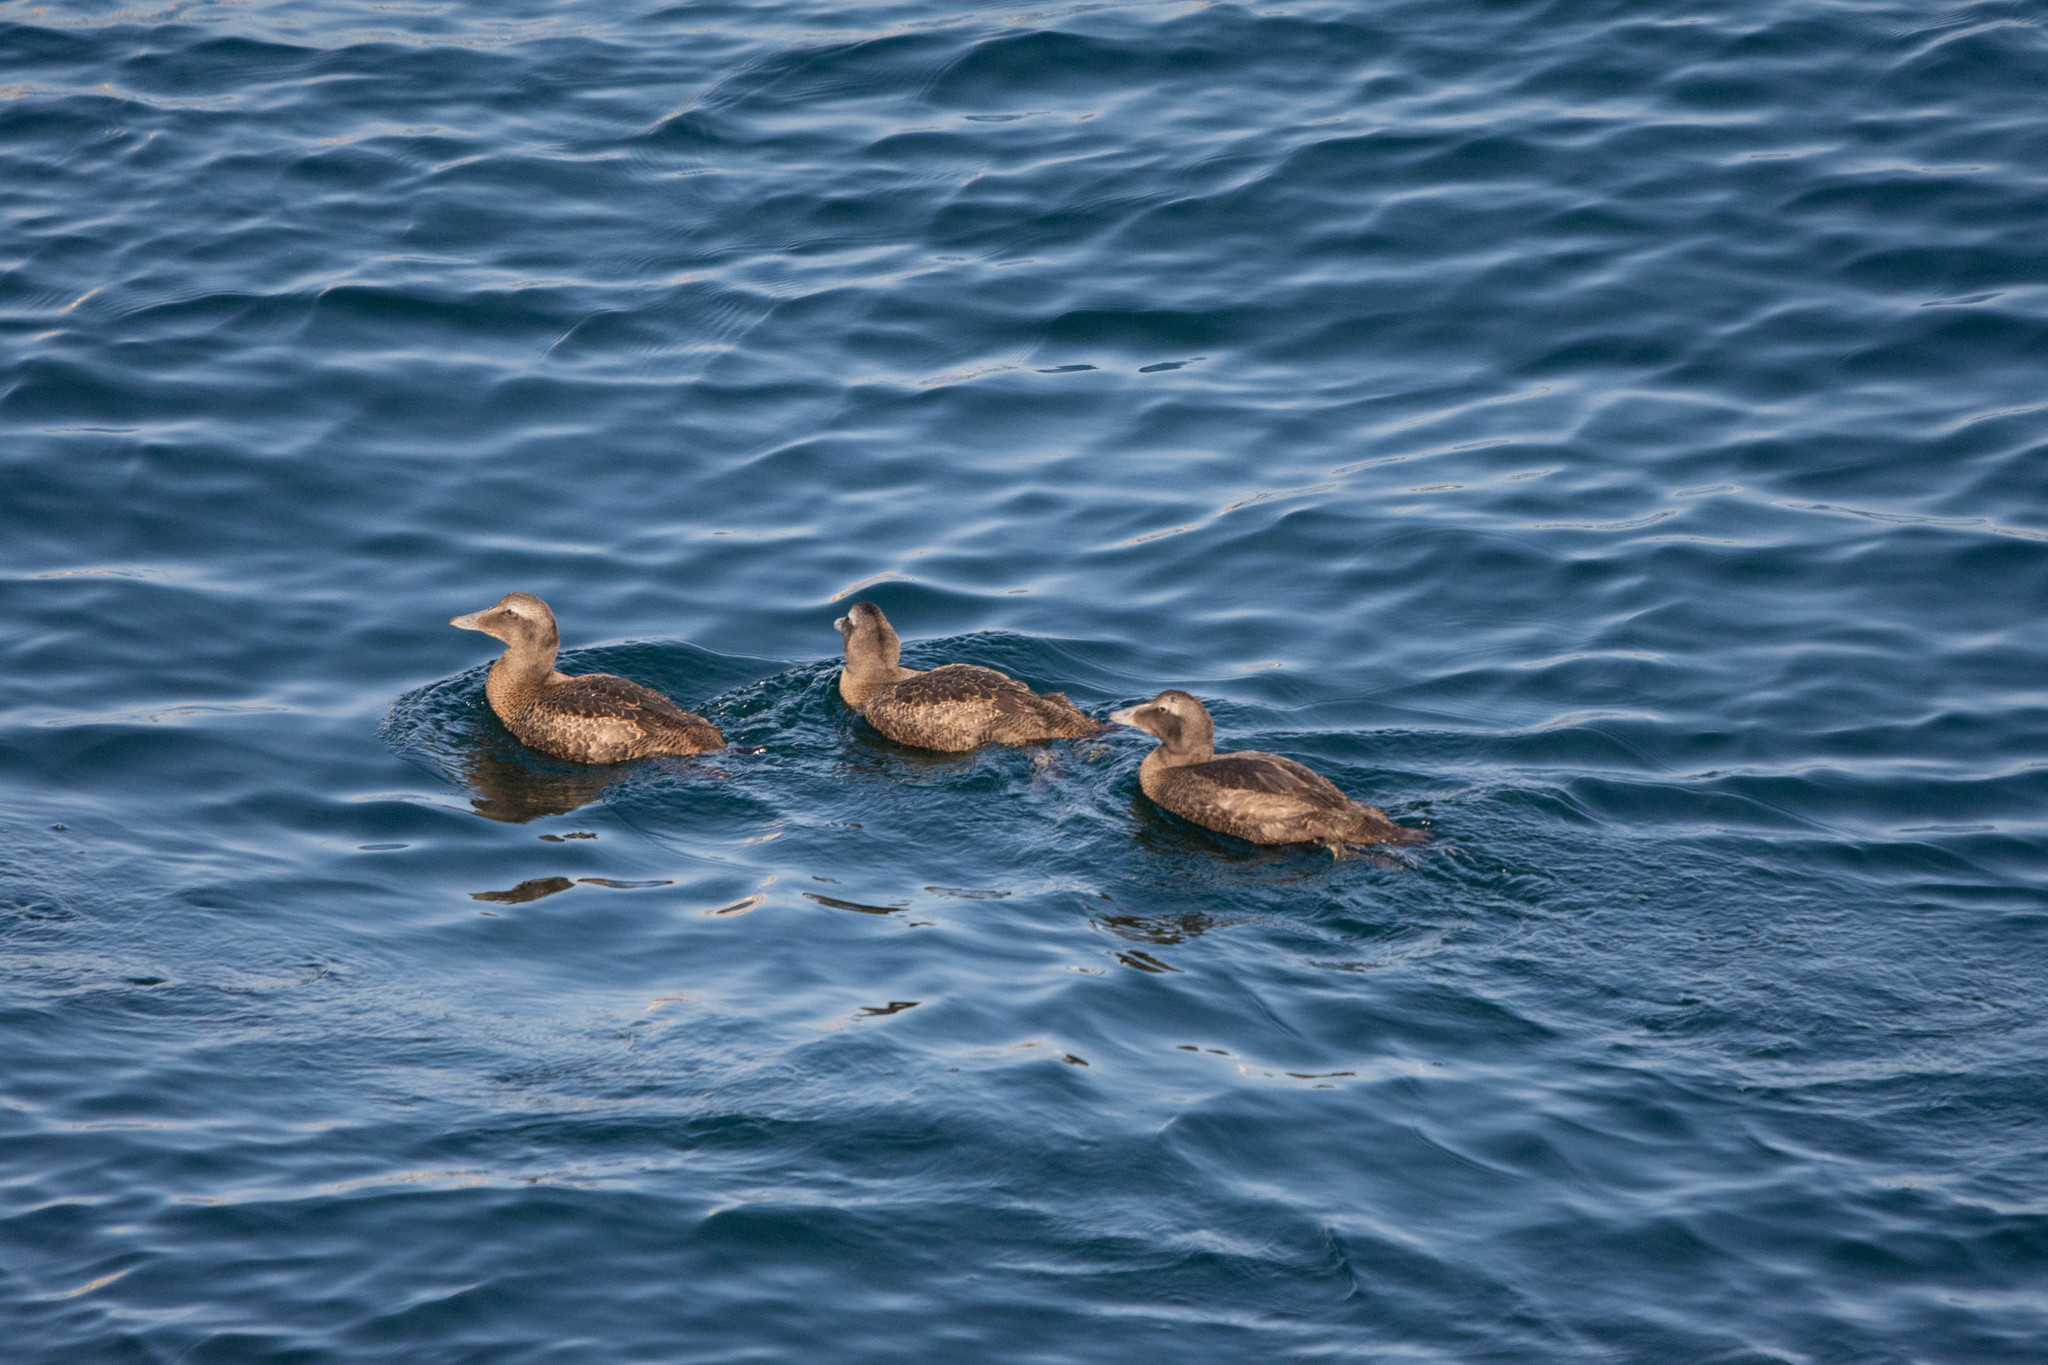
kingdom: Animalia
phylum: Chordata
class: Aves
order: Anseriformes
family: Anatidae
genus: Somateria
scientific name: Somateria mollissima
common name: Common eider
